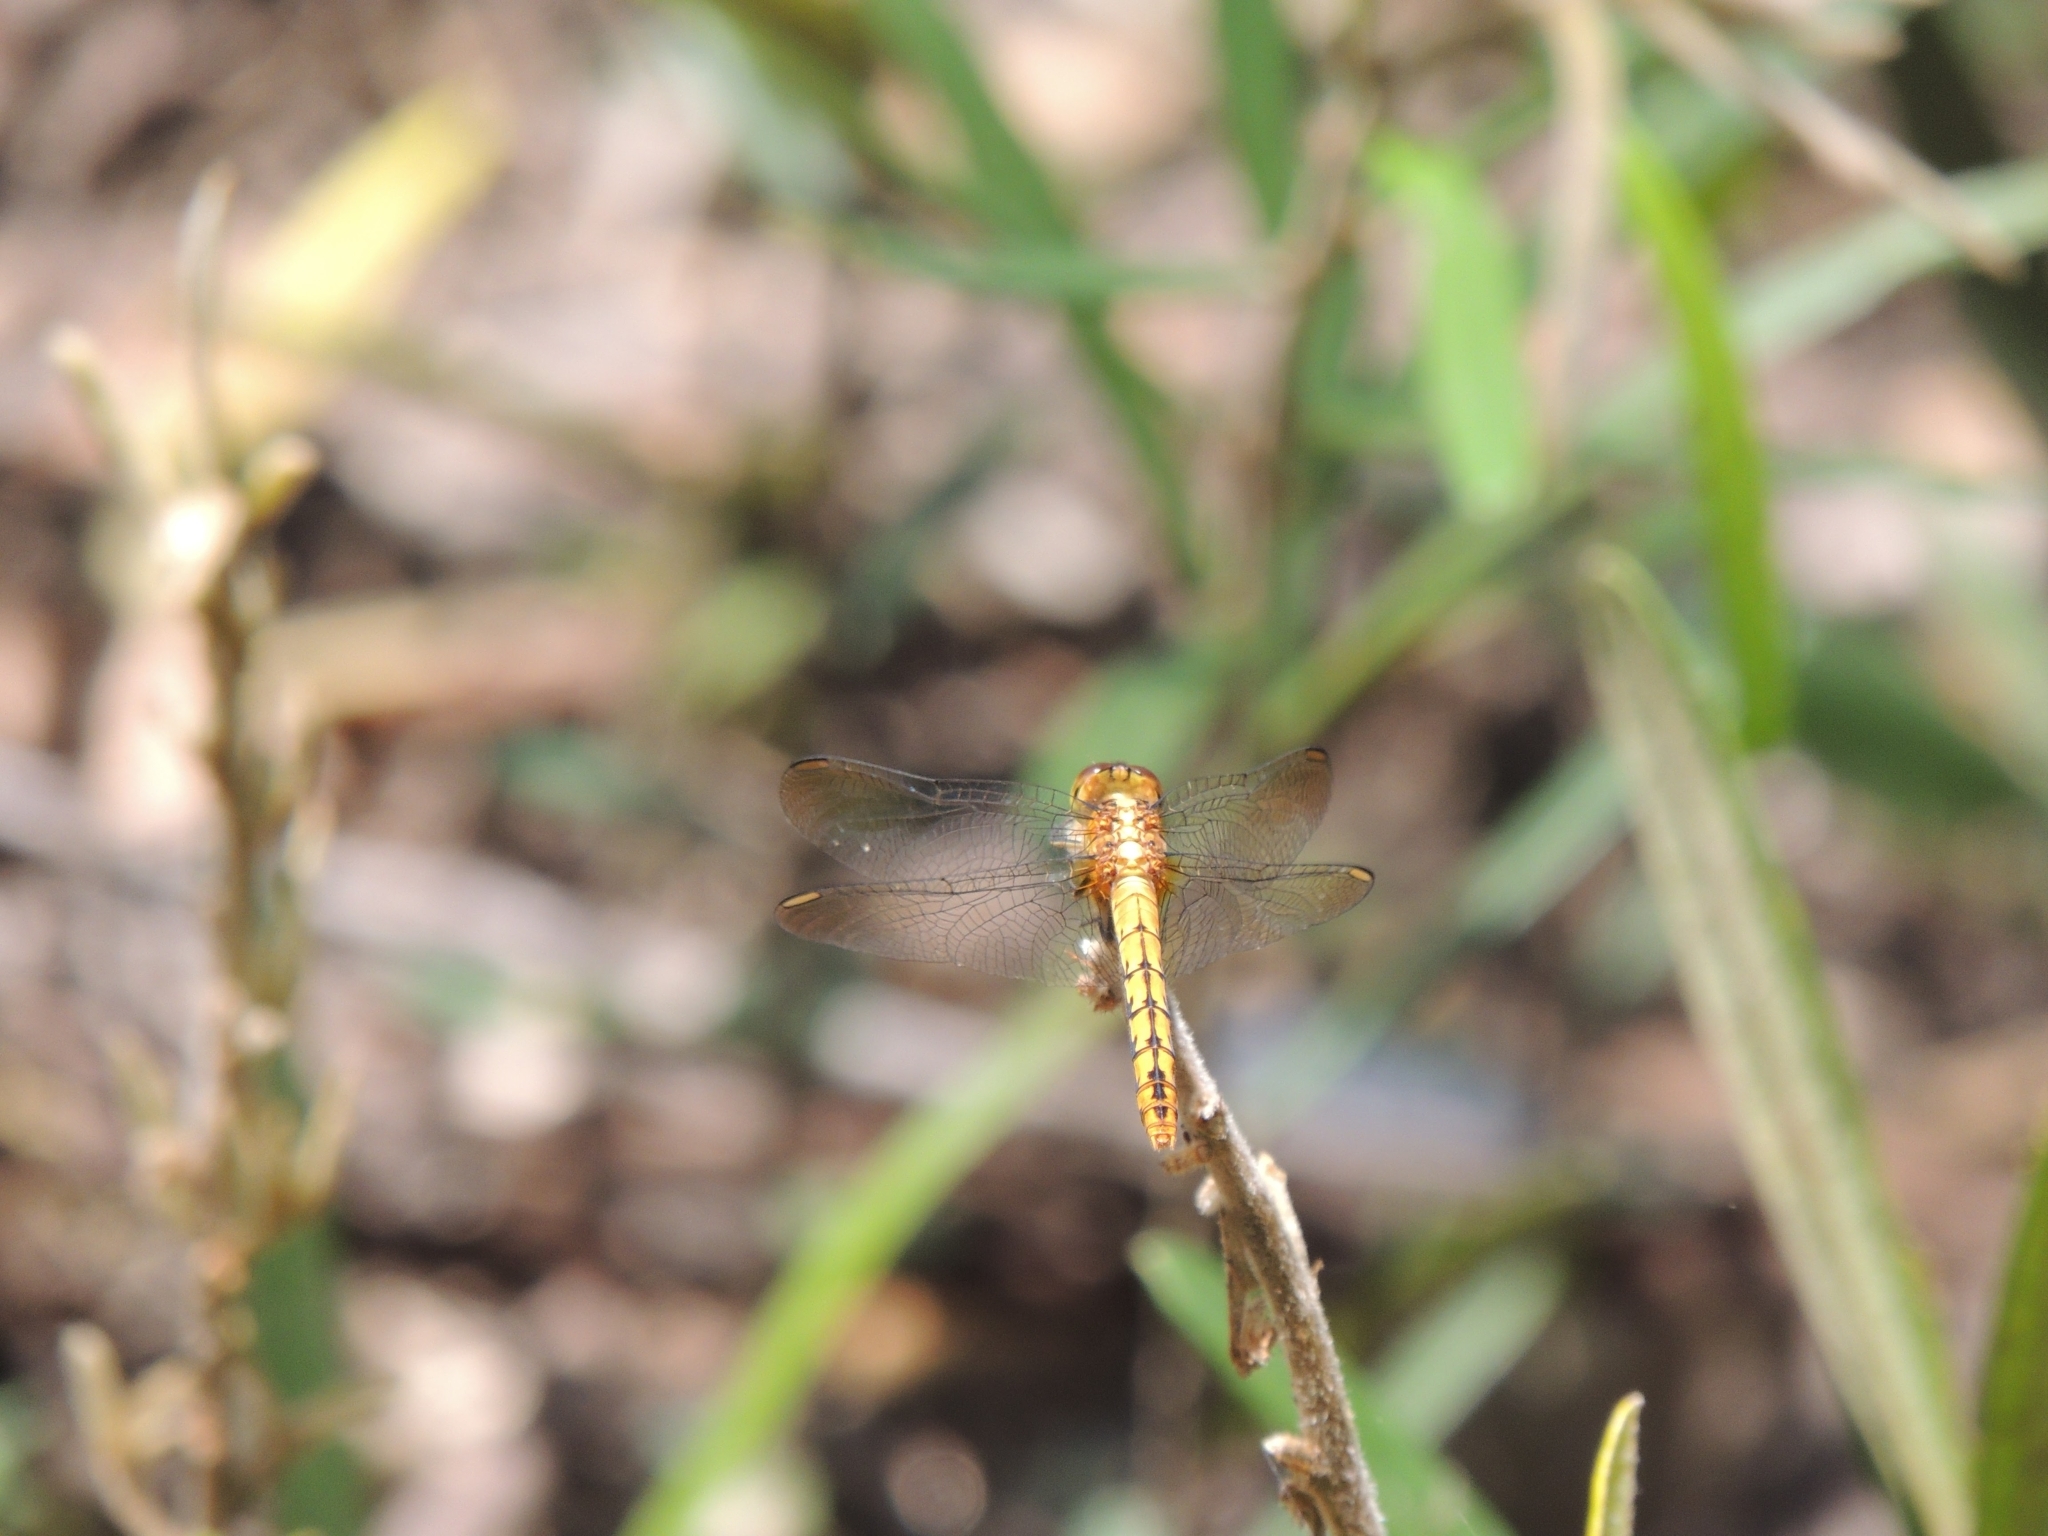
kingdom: Animalia
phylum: Arthropoda
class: Insecta
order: Odonata
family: Libellulidae
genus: Diplacodes
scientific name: Diplacodes melanopsis
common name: Black-faced percher
